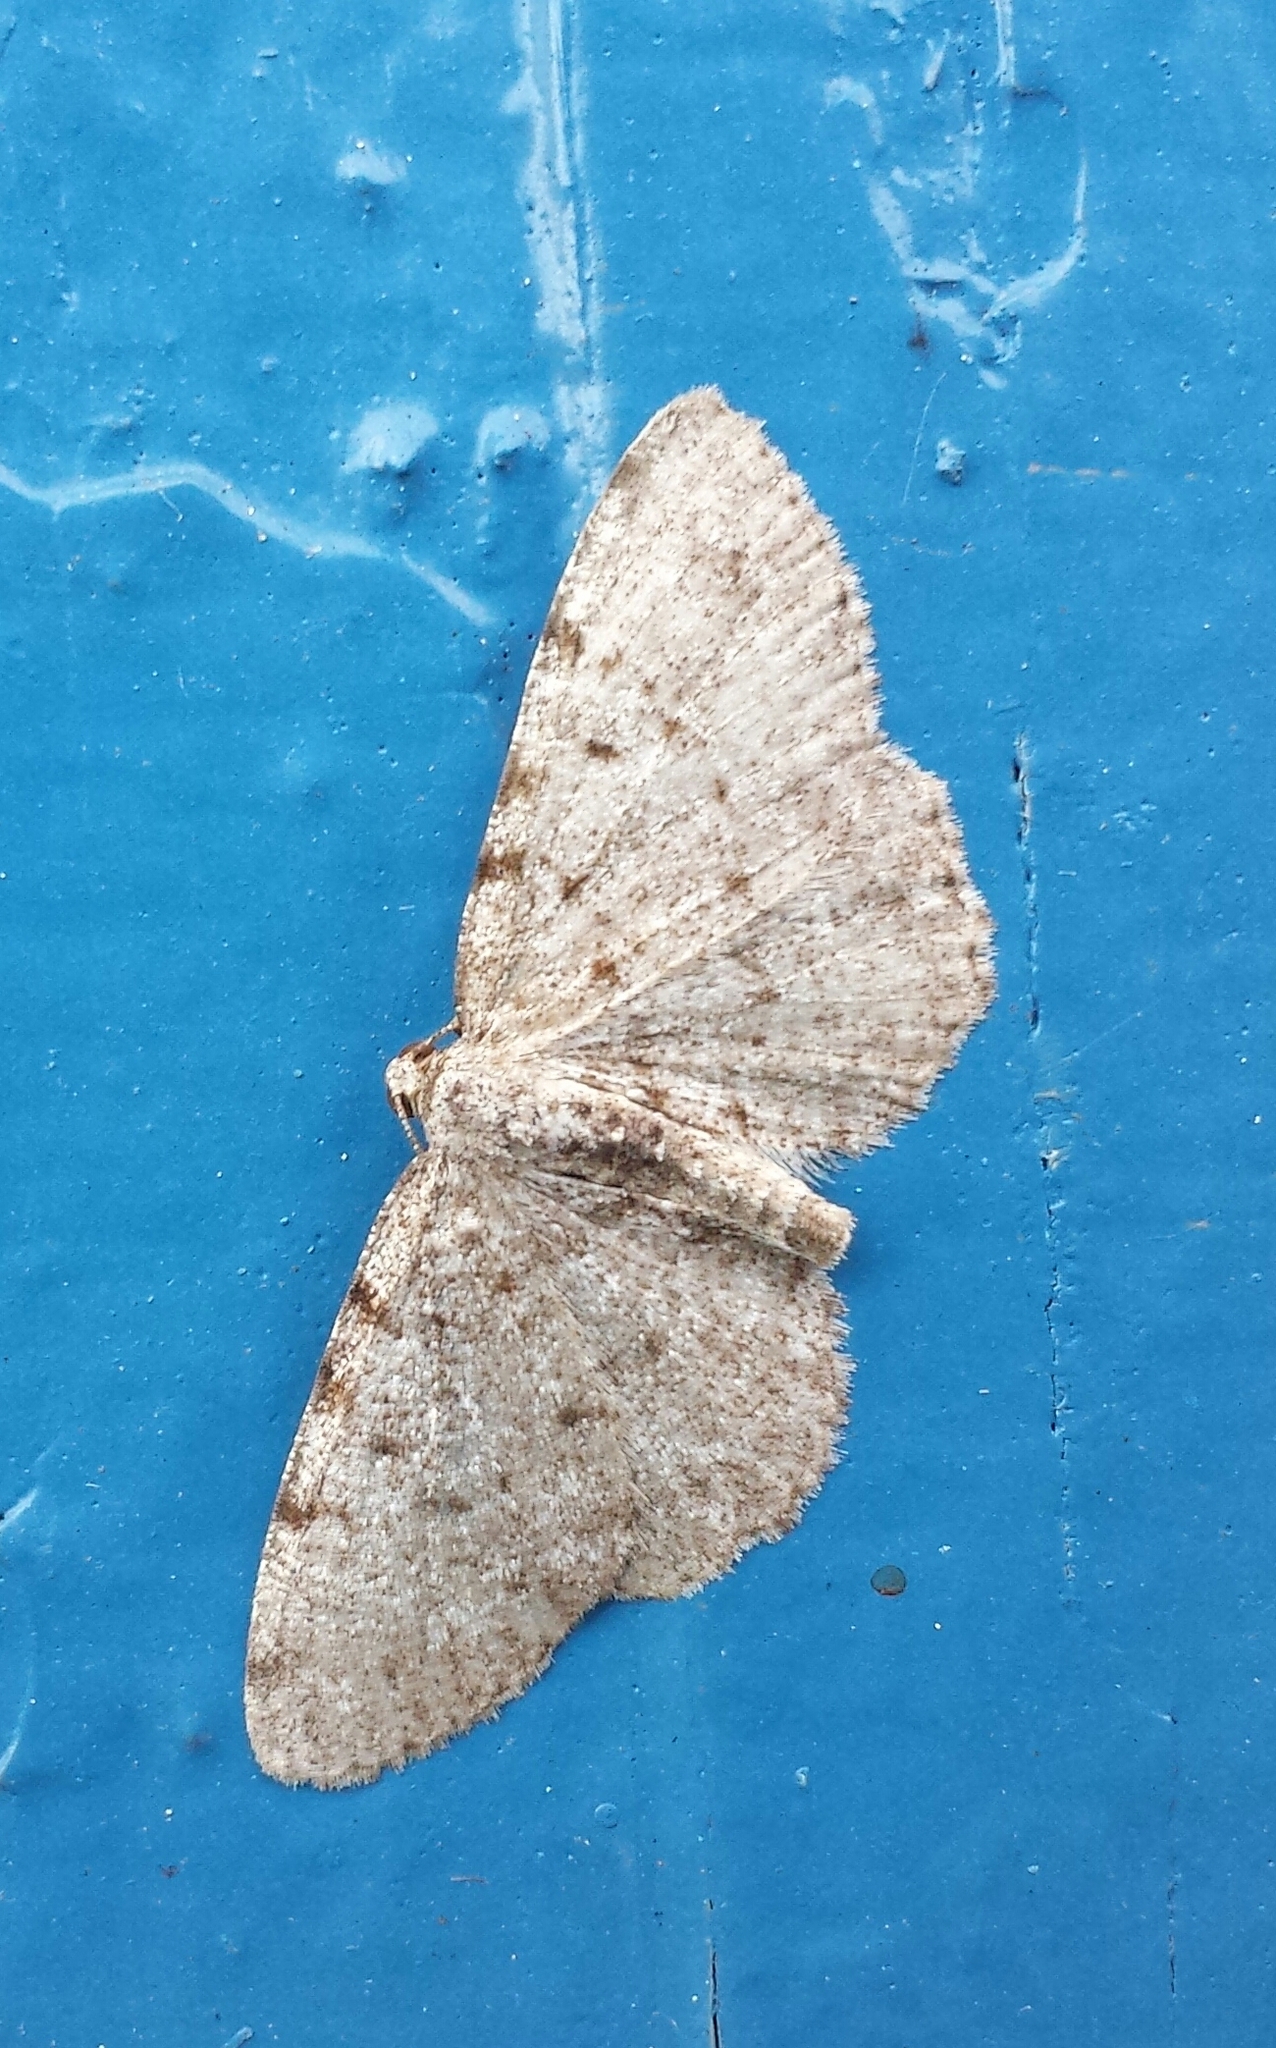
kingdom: Animalia
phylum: Arthropoda
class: Insecta
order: Lepidoptera
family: Geometridae
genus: Aethalura
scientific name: Aethalura intertexta
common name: Four-barred gray
